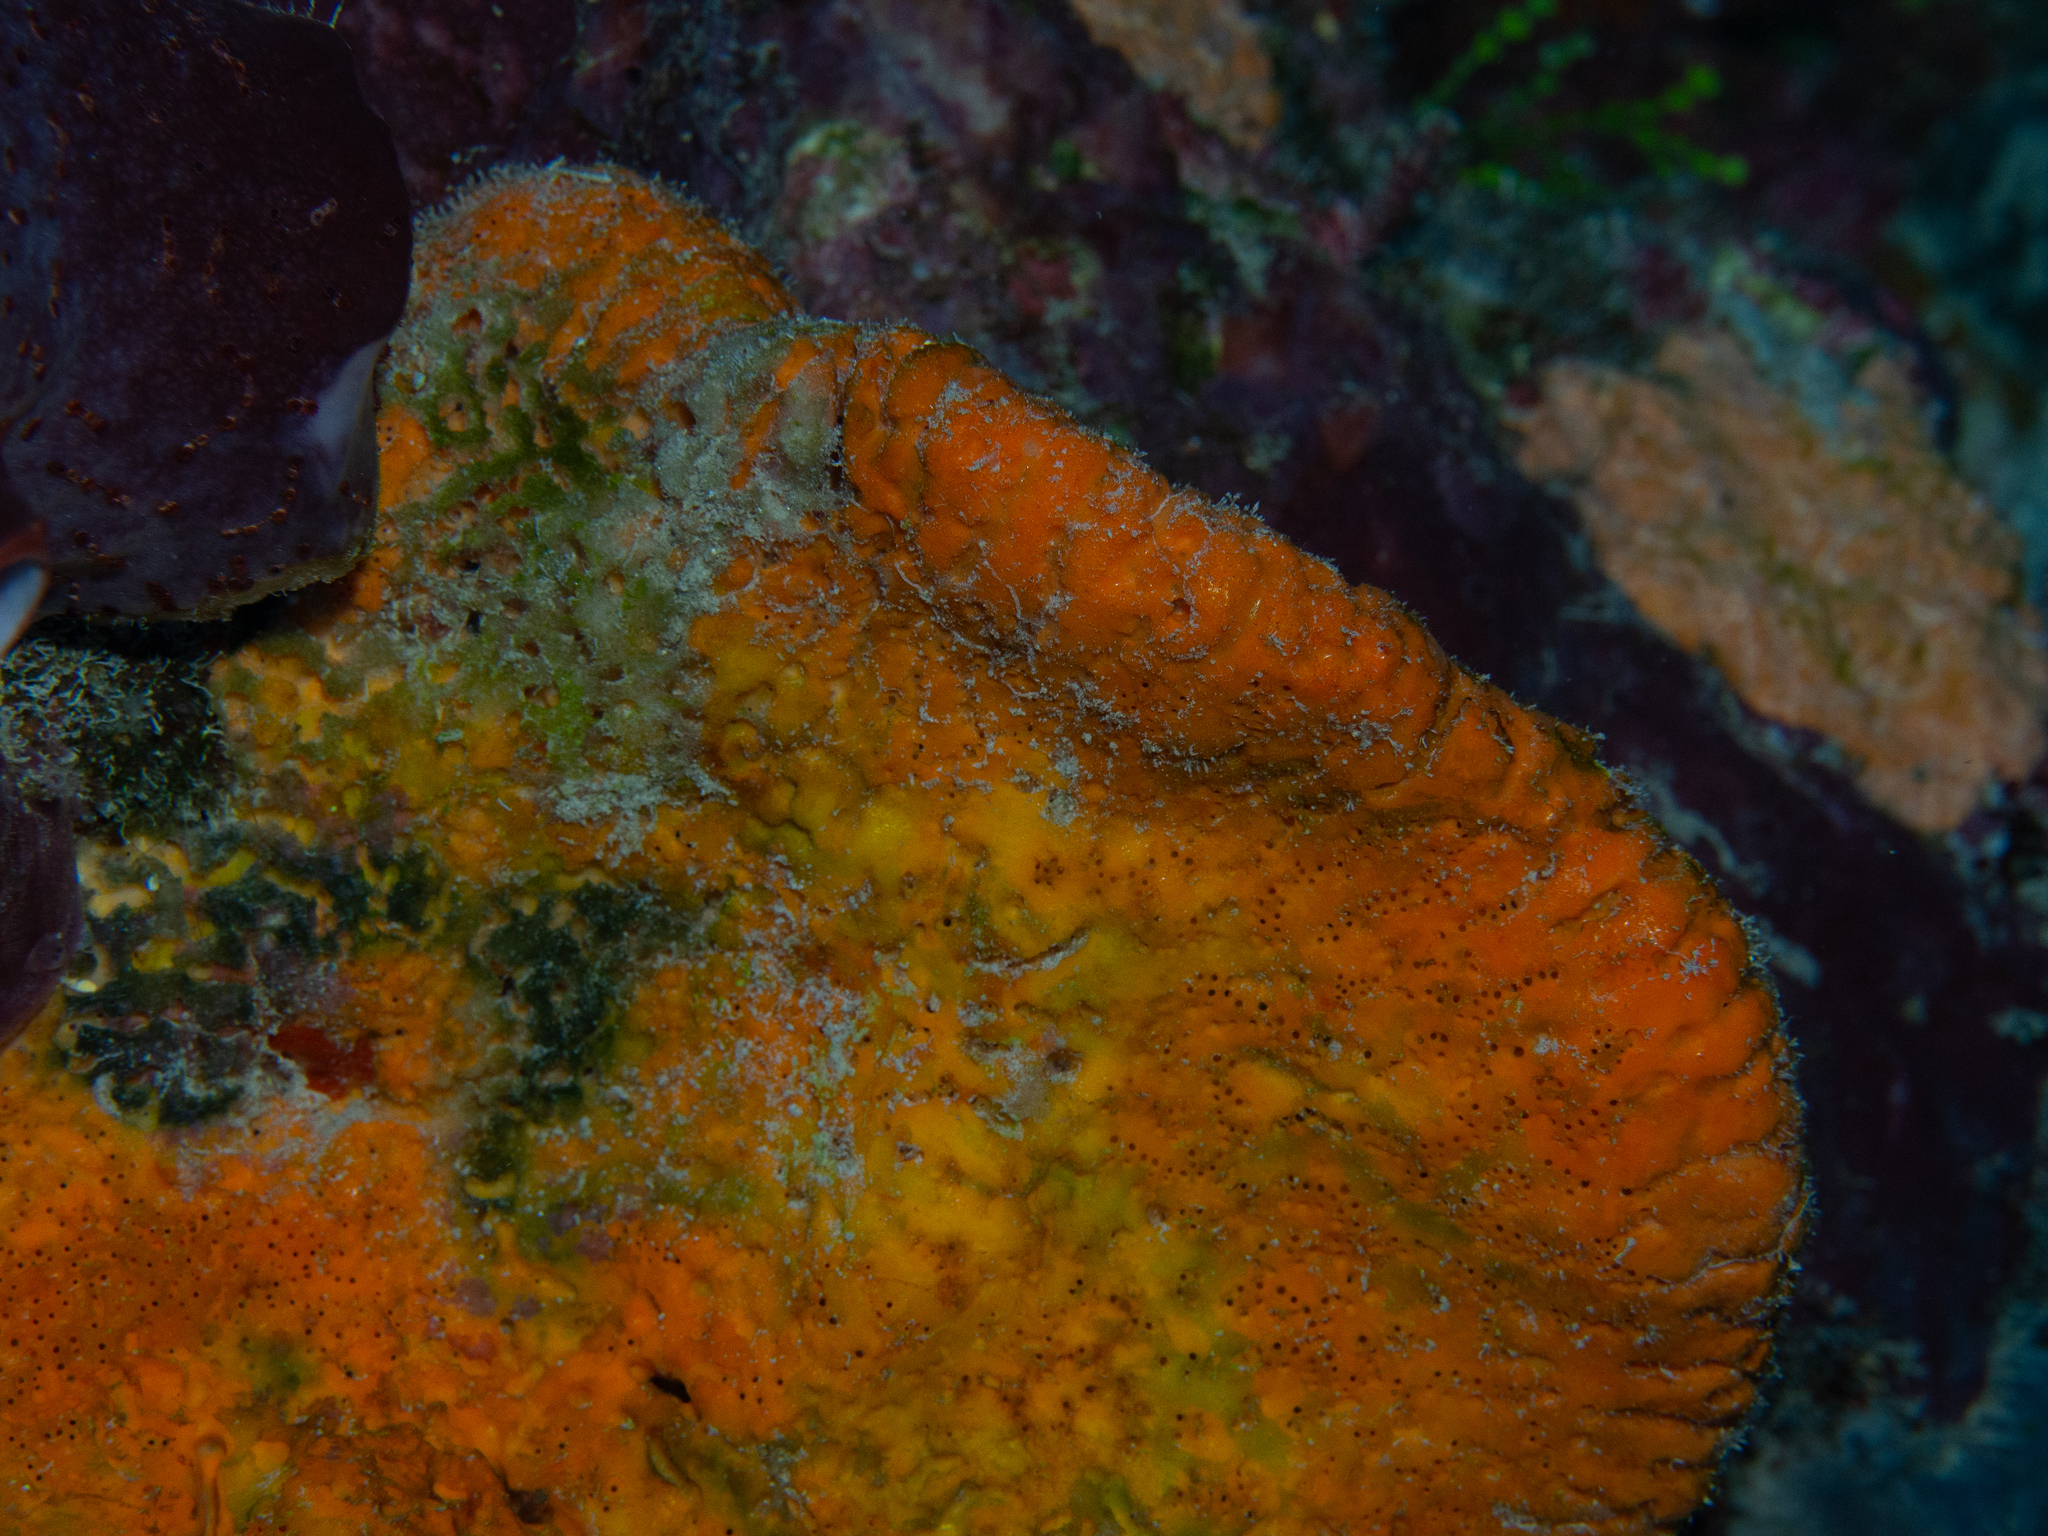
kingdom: Animalia
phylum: Porifera
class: Demospongiae
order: Agelasida
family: Agelasidae
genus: Agelas
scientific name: Agelas clathrodes
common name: Orange elephant ear sponge
